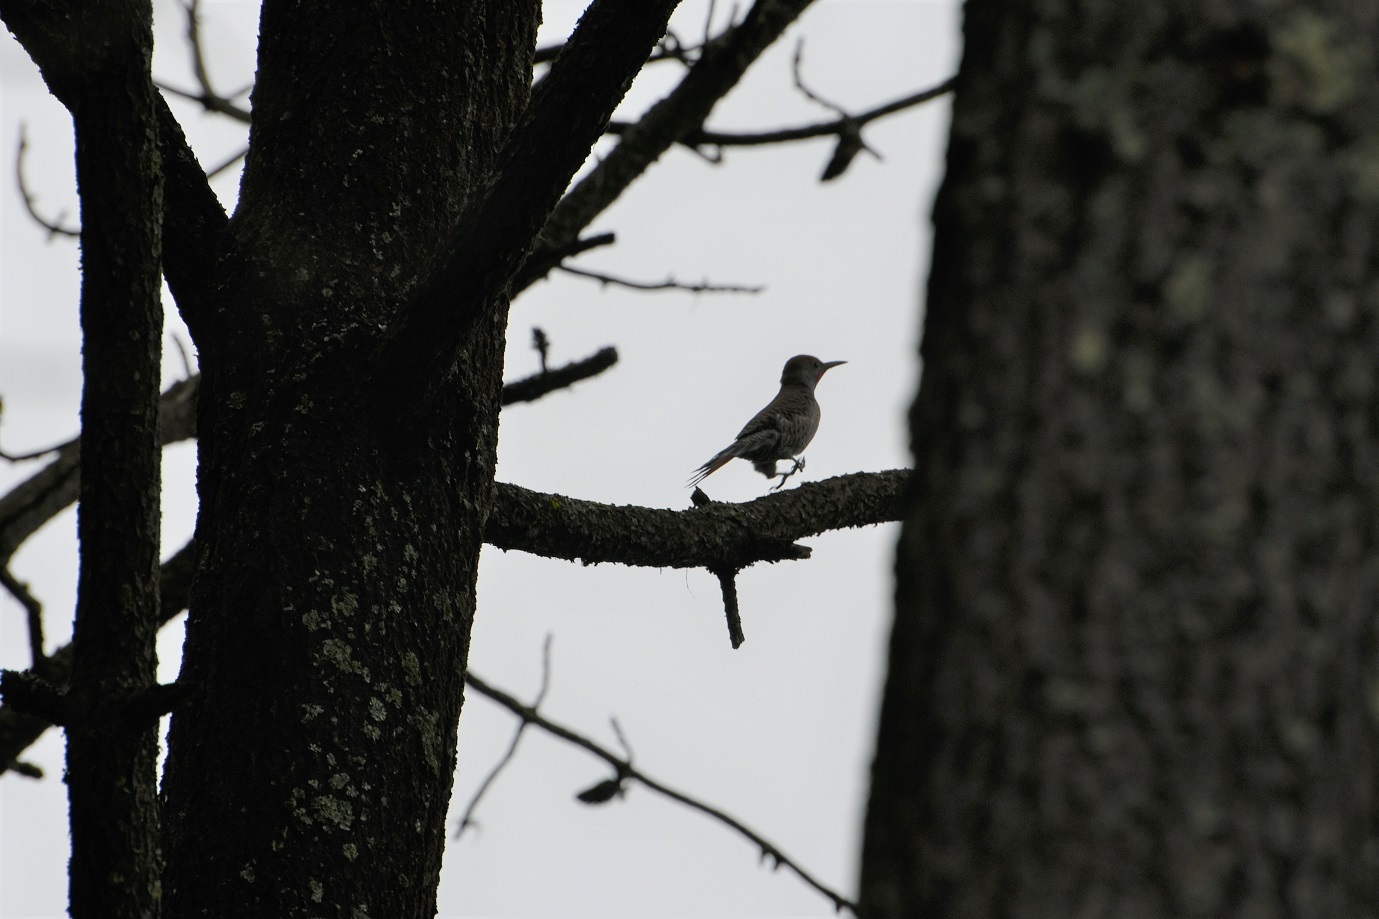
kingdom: Animalia
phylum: Chordata
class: Aves
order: Piciformes
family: Picidae
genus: Colaptes
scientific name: Colaptes auratus
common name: Northern flicker
